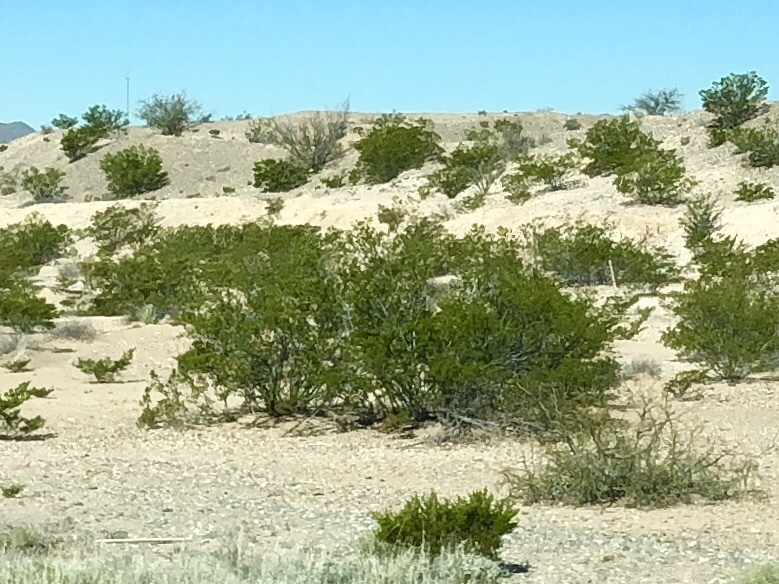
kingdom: Plantae
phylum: Tracheophyta
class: Magnoliopsida
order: Zygophyllales
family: Zygophyllaceae
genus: Larrea
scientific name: Larrea tridentata
